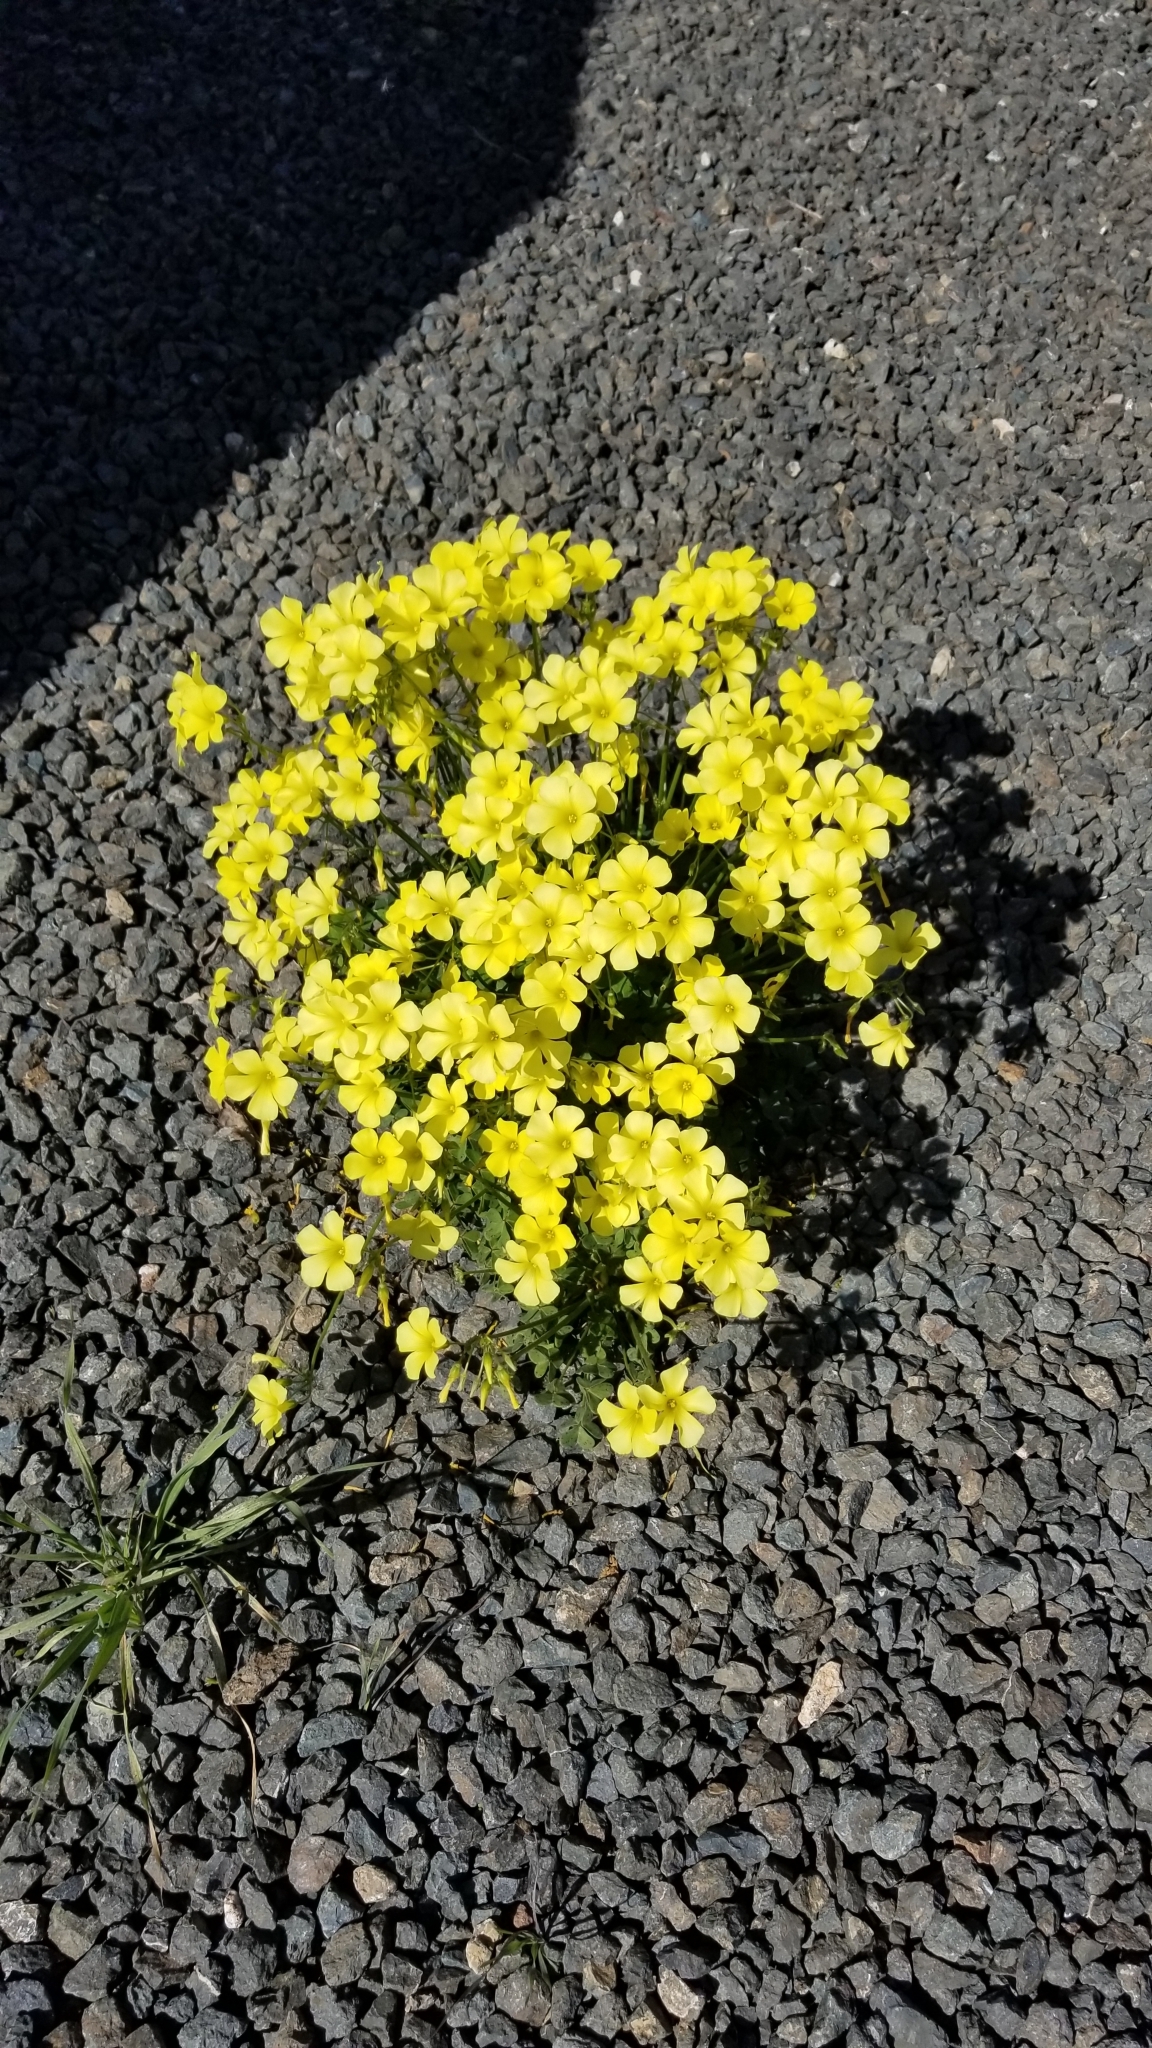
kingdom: Plantae
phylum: Tracheophyta
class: Magnoliopsida
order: Oxalidales
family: Oxalidaceae
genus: Oxalis
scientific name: Oxalis pes-caprae
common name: Bermuda-buttercup
